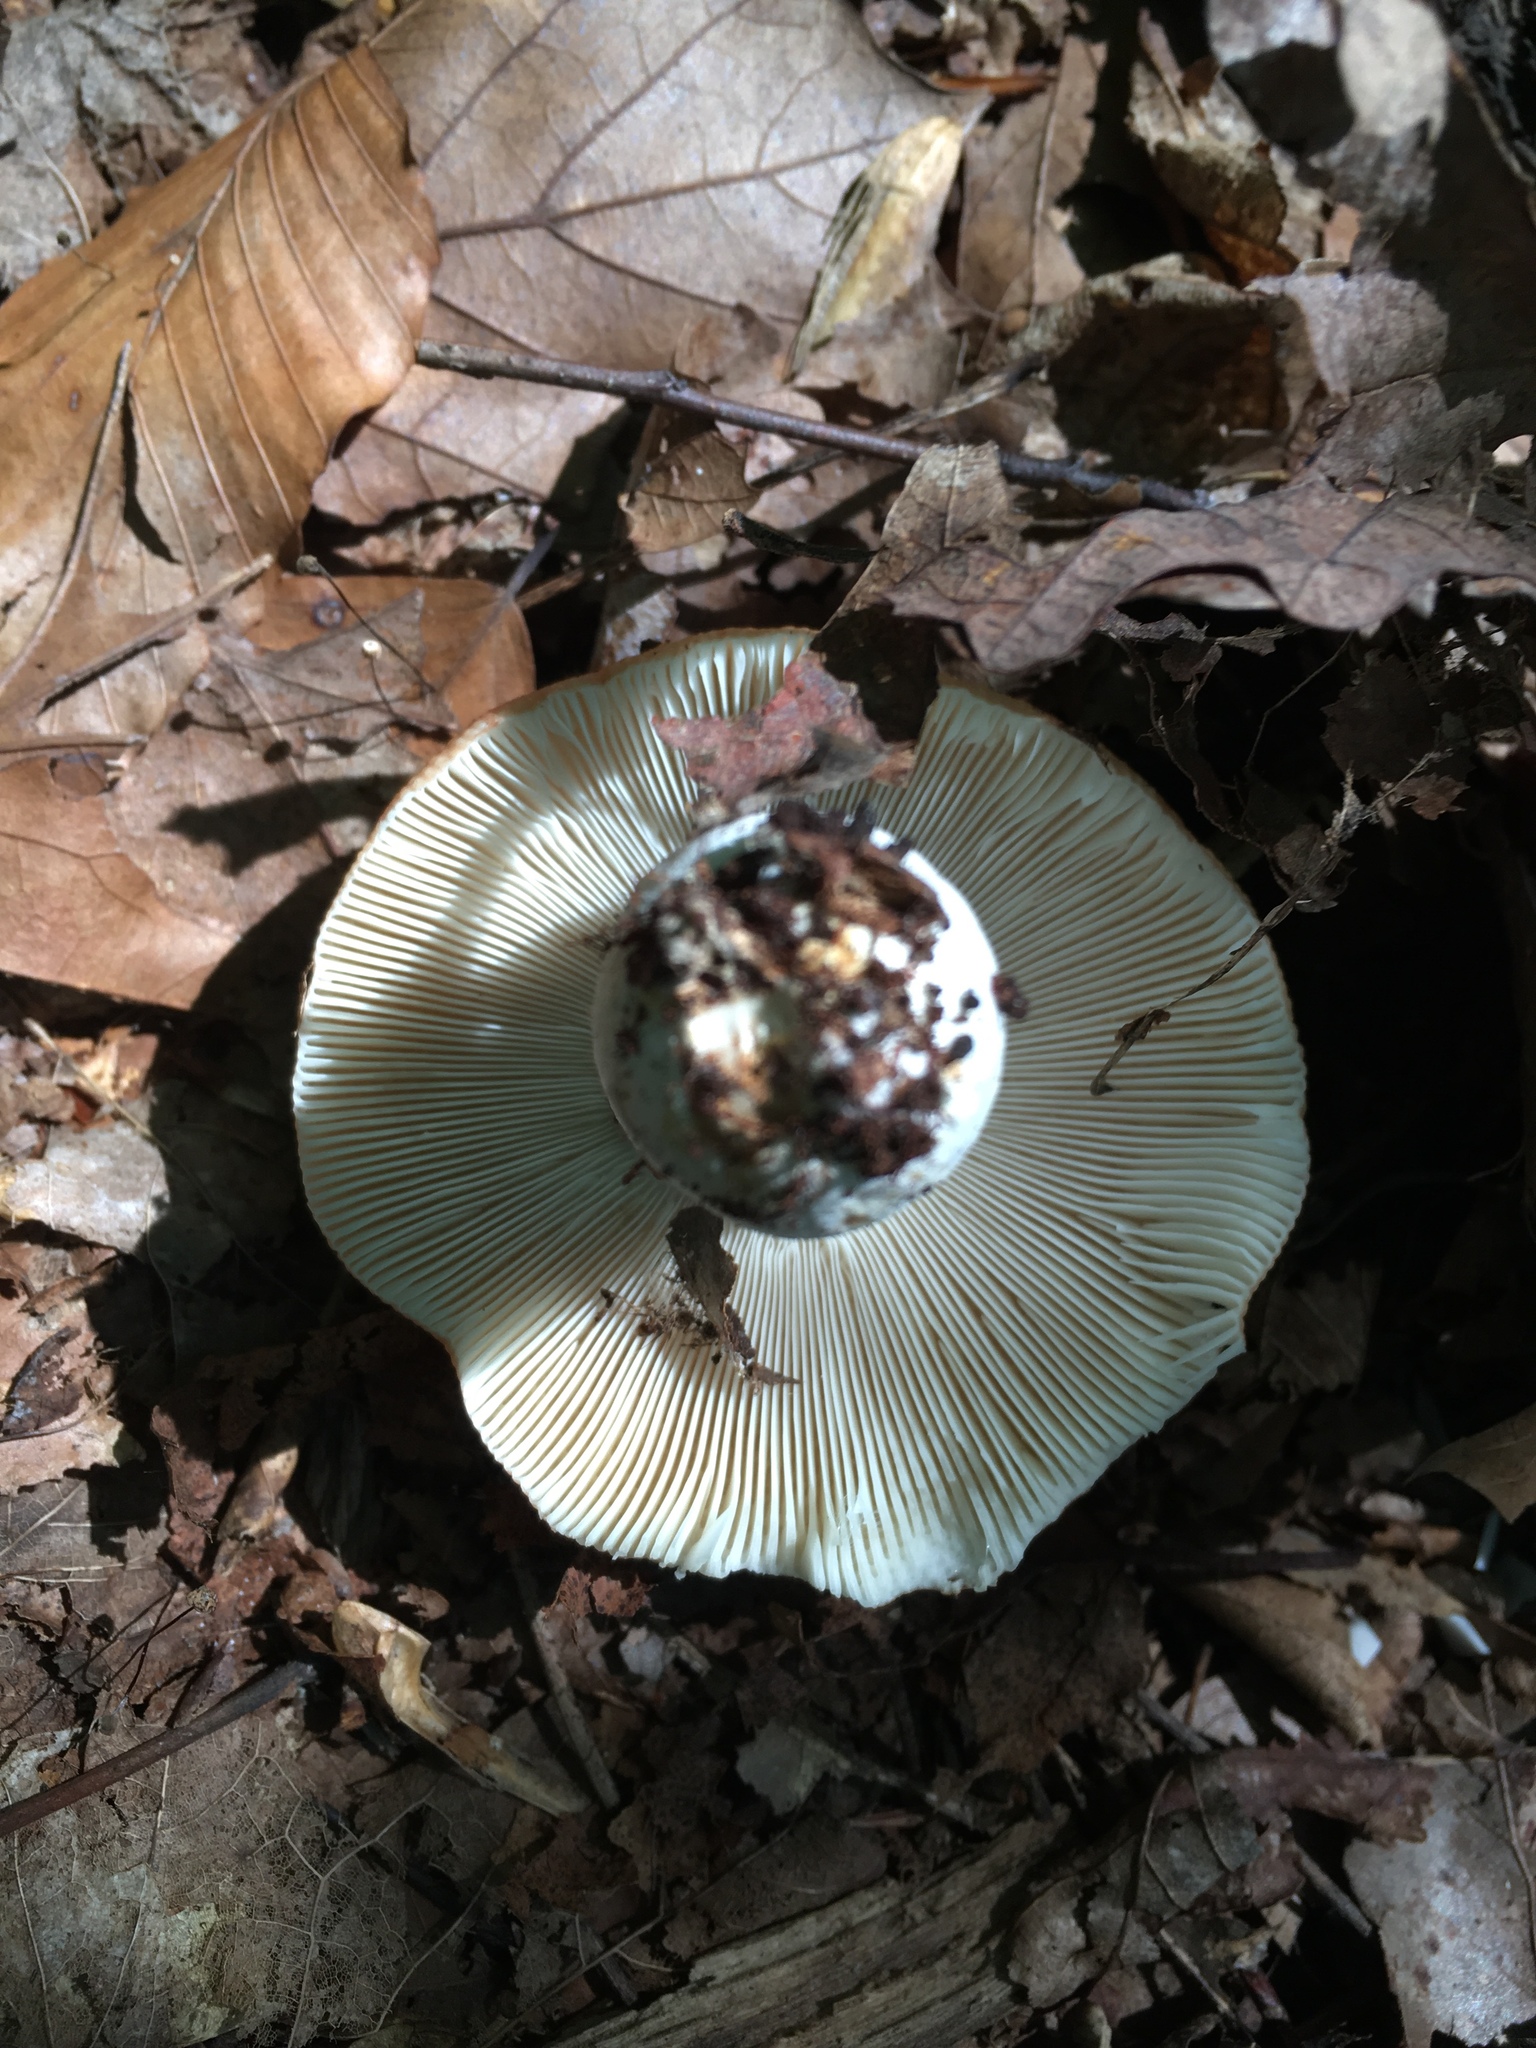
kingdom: Fungi
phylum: Basidiomycota
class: Agaricomycetes
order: Russulales
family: Russulaceae
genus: Russula
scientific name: Russula
